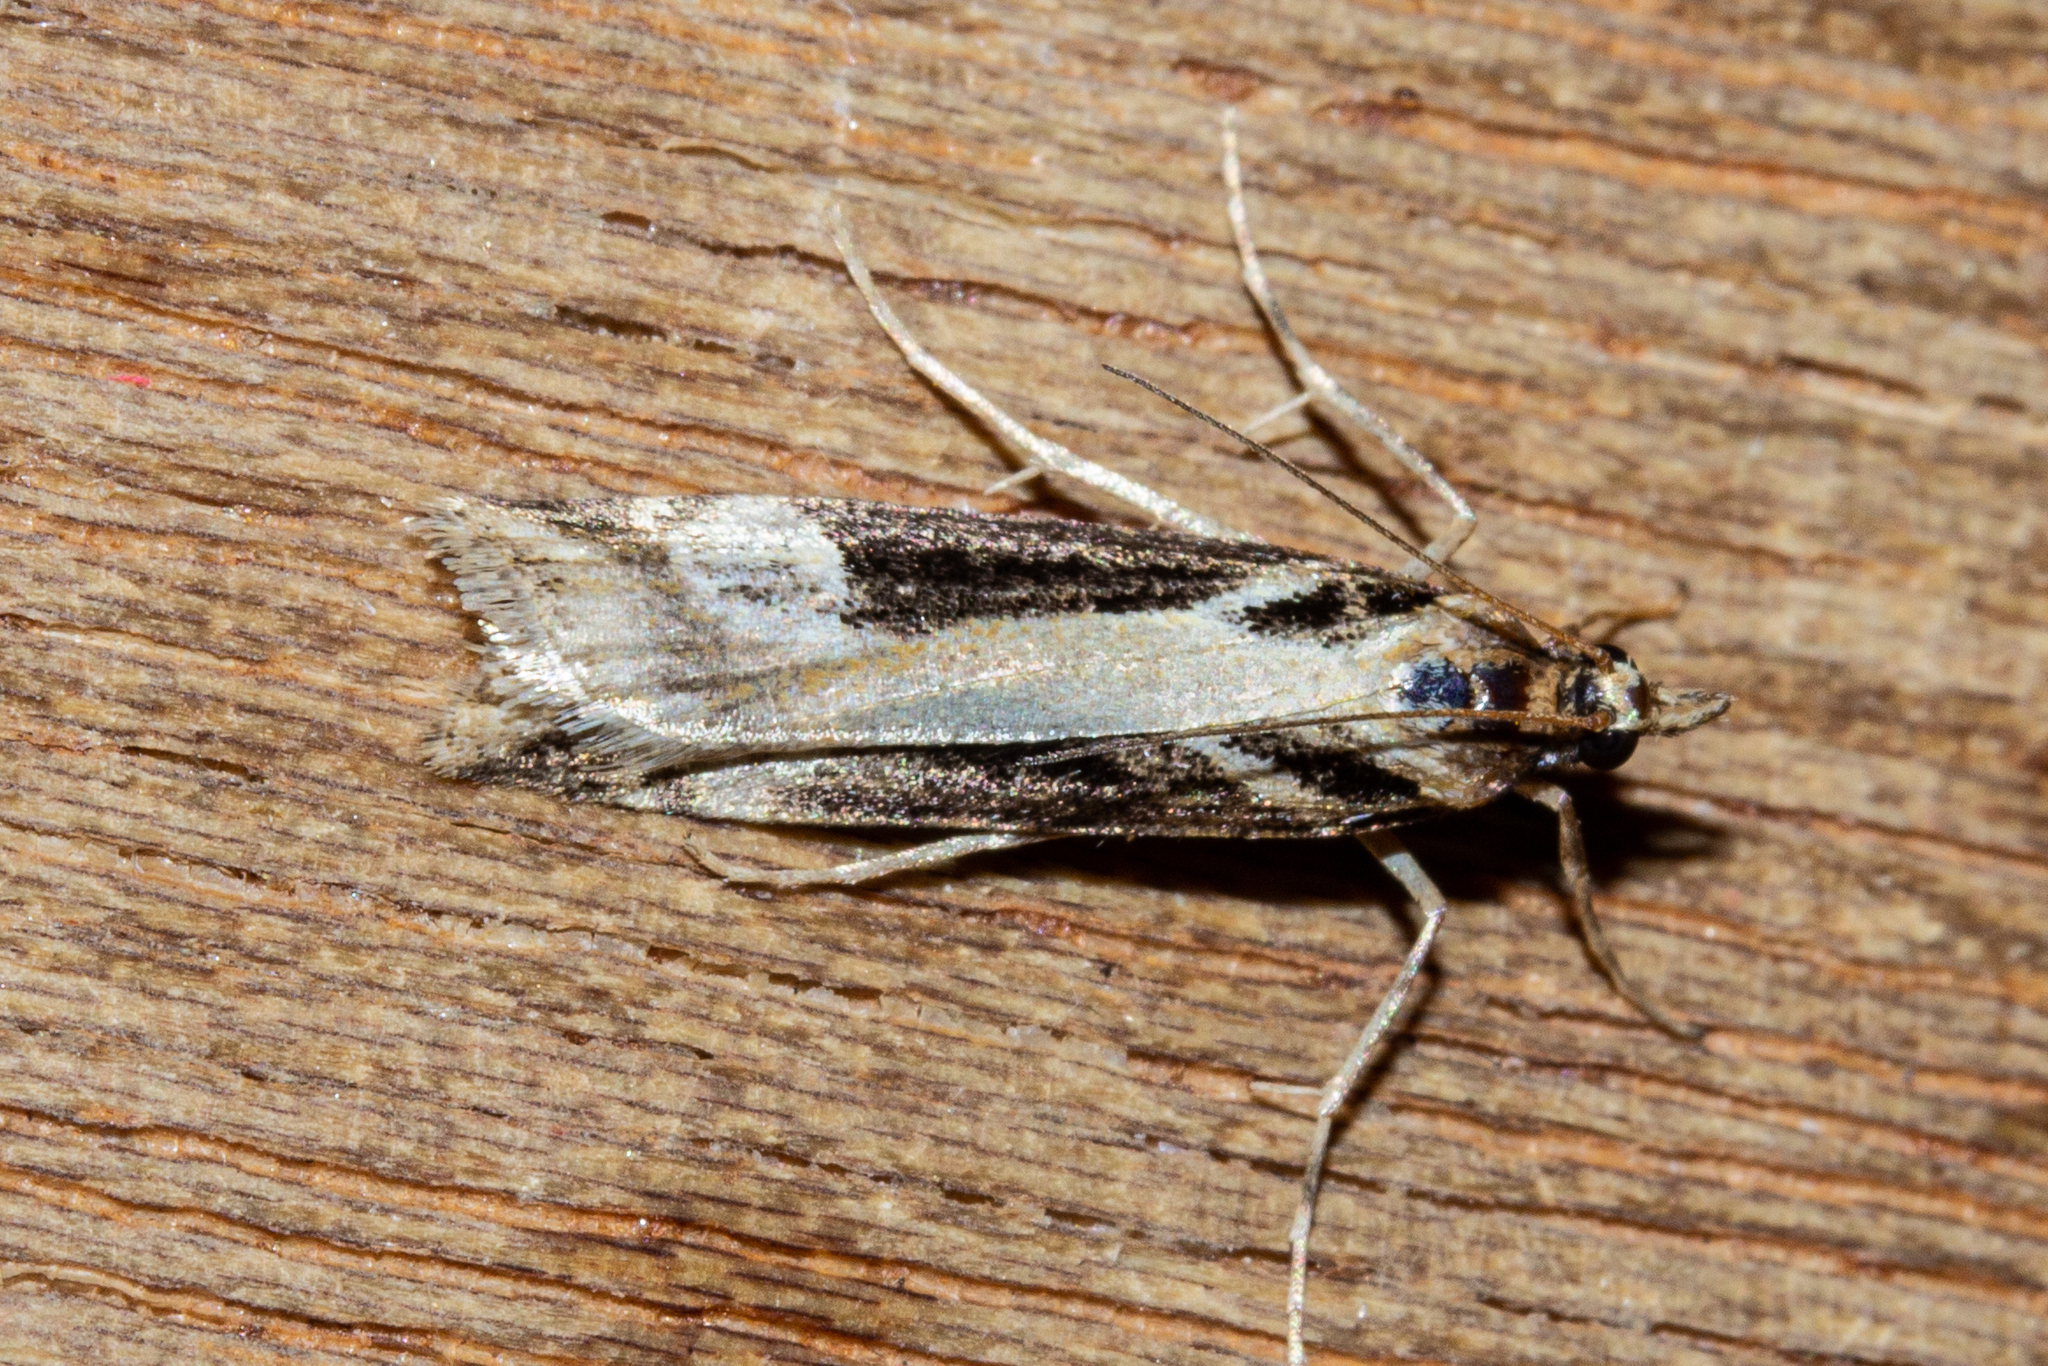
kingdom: Animalia
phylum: Arthropoda
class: Insecta
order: Lepidoptera
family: Crambidae
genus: Scoparia
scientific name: Scoparia trapezophora
